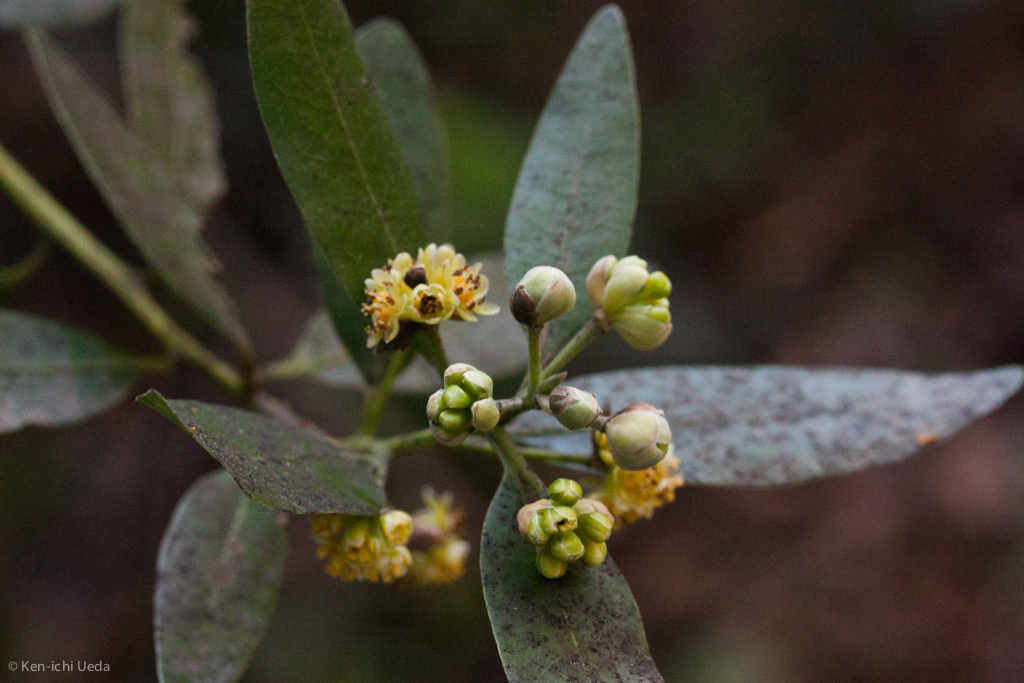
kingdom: Plantae
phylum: Tracheophyta
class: Magnoliopsida
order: Laurales
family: Lauraceae
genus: Umbellularia
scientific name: Umbellularia californica
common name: California bay
